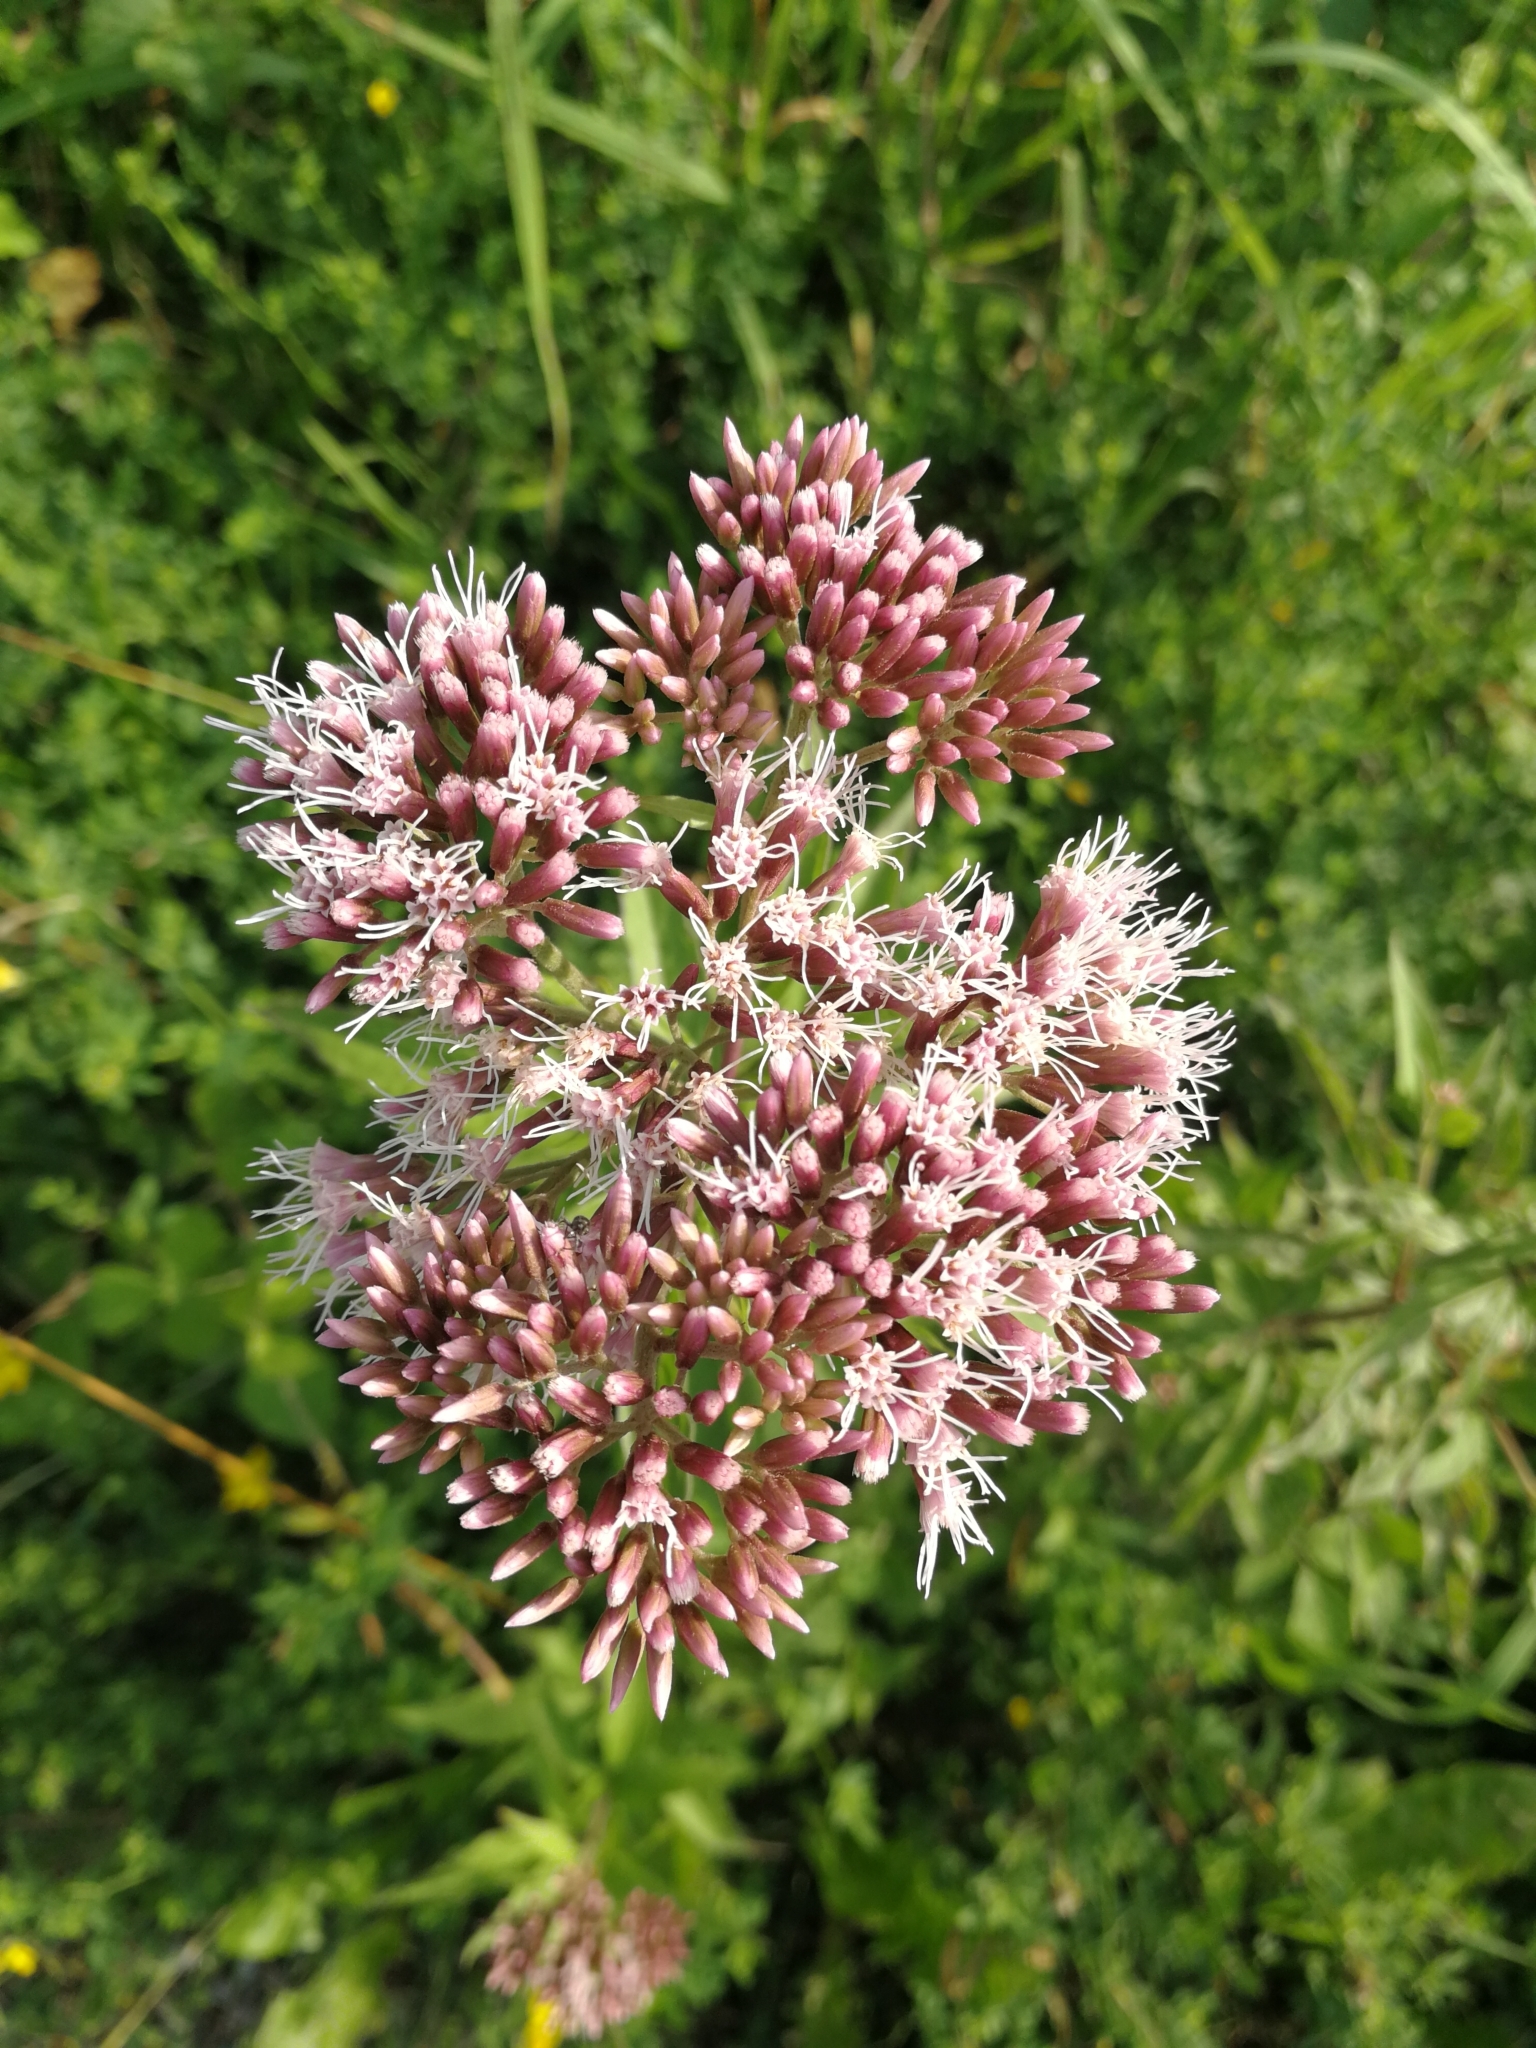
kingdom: Plantae
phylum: Tracheophyta
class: Magnoliopsida
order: Asterales
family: Asteraceae
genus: Eupatorium
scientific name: Eupatorium cannabinum
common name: Hemp-agrimony
